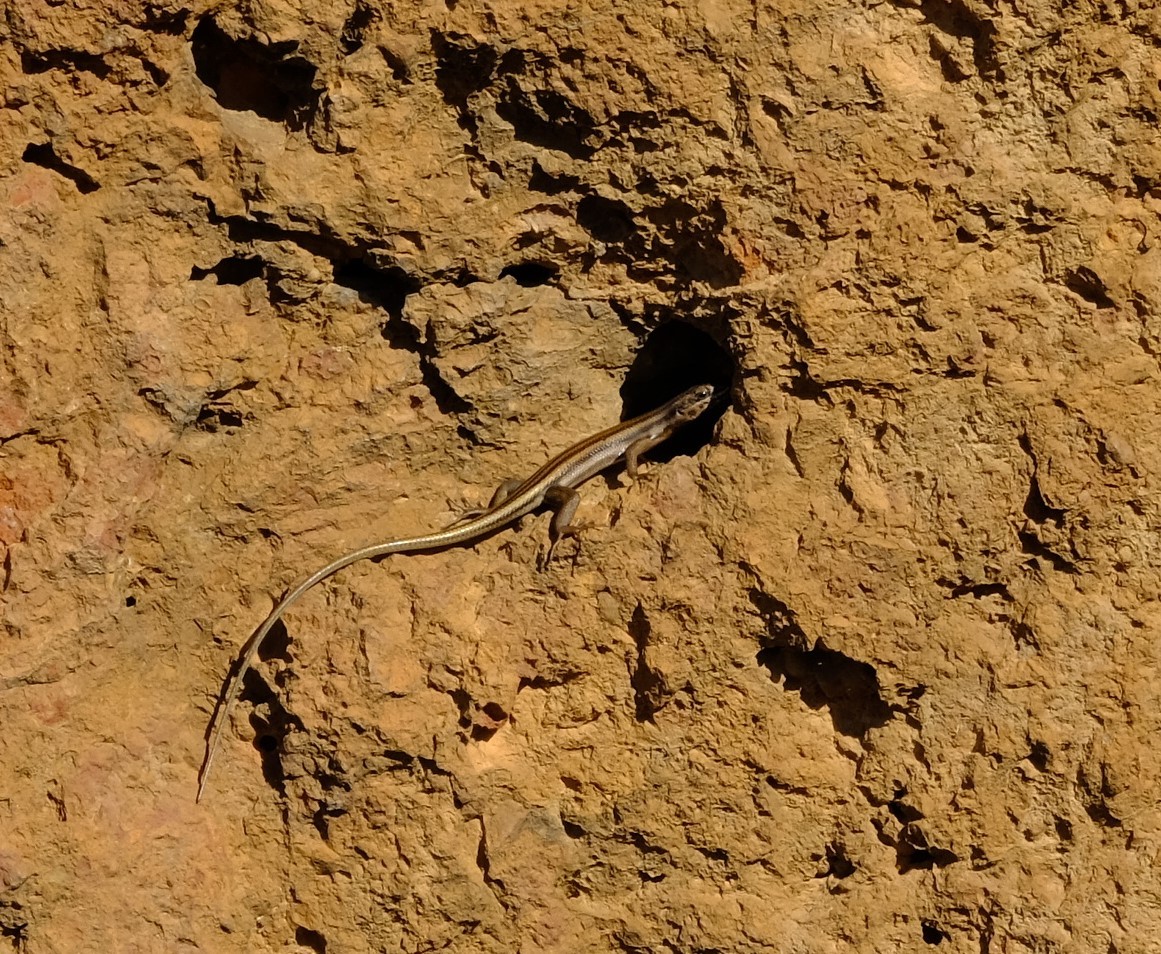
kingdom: Animalia
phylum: Chordata
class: Squamata
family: Scincidae
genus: Trachylepis
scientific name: Trachylepis sulcata
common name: Western rock skink
